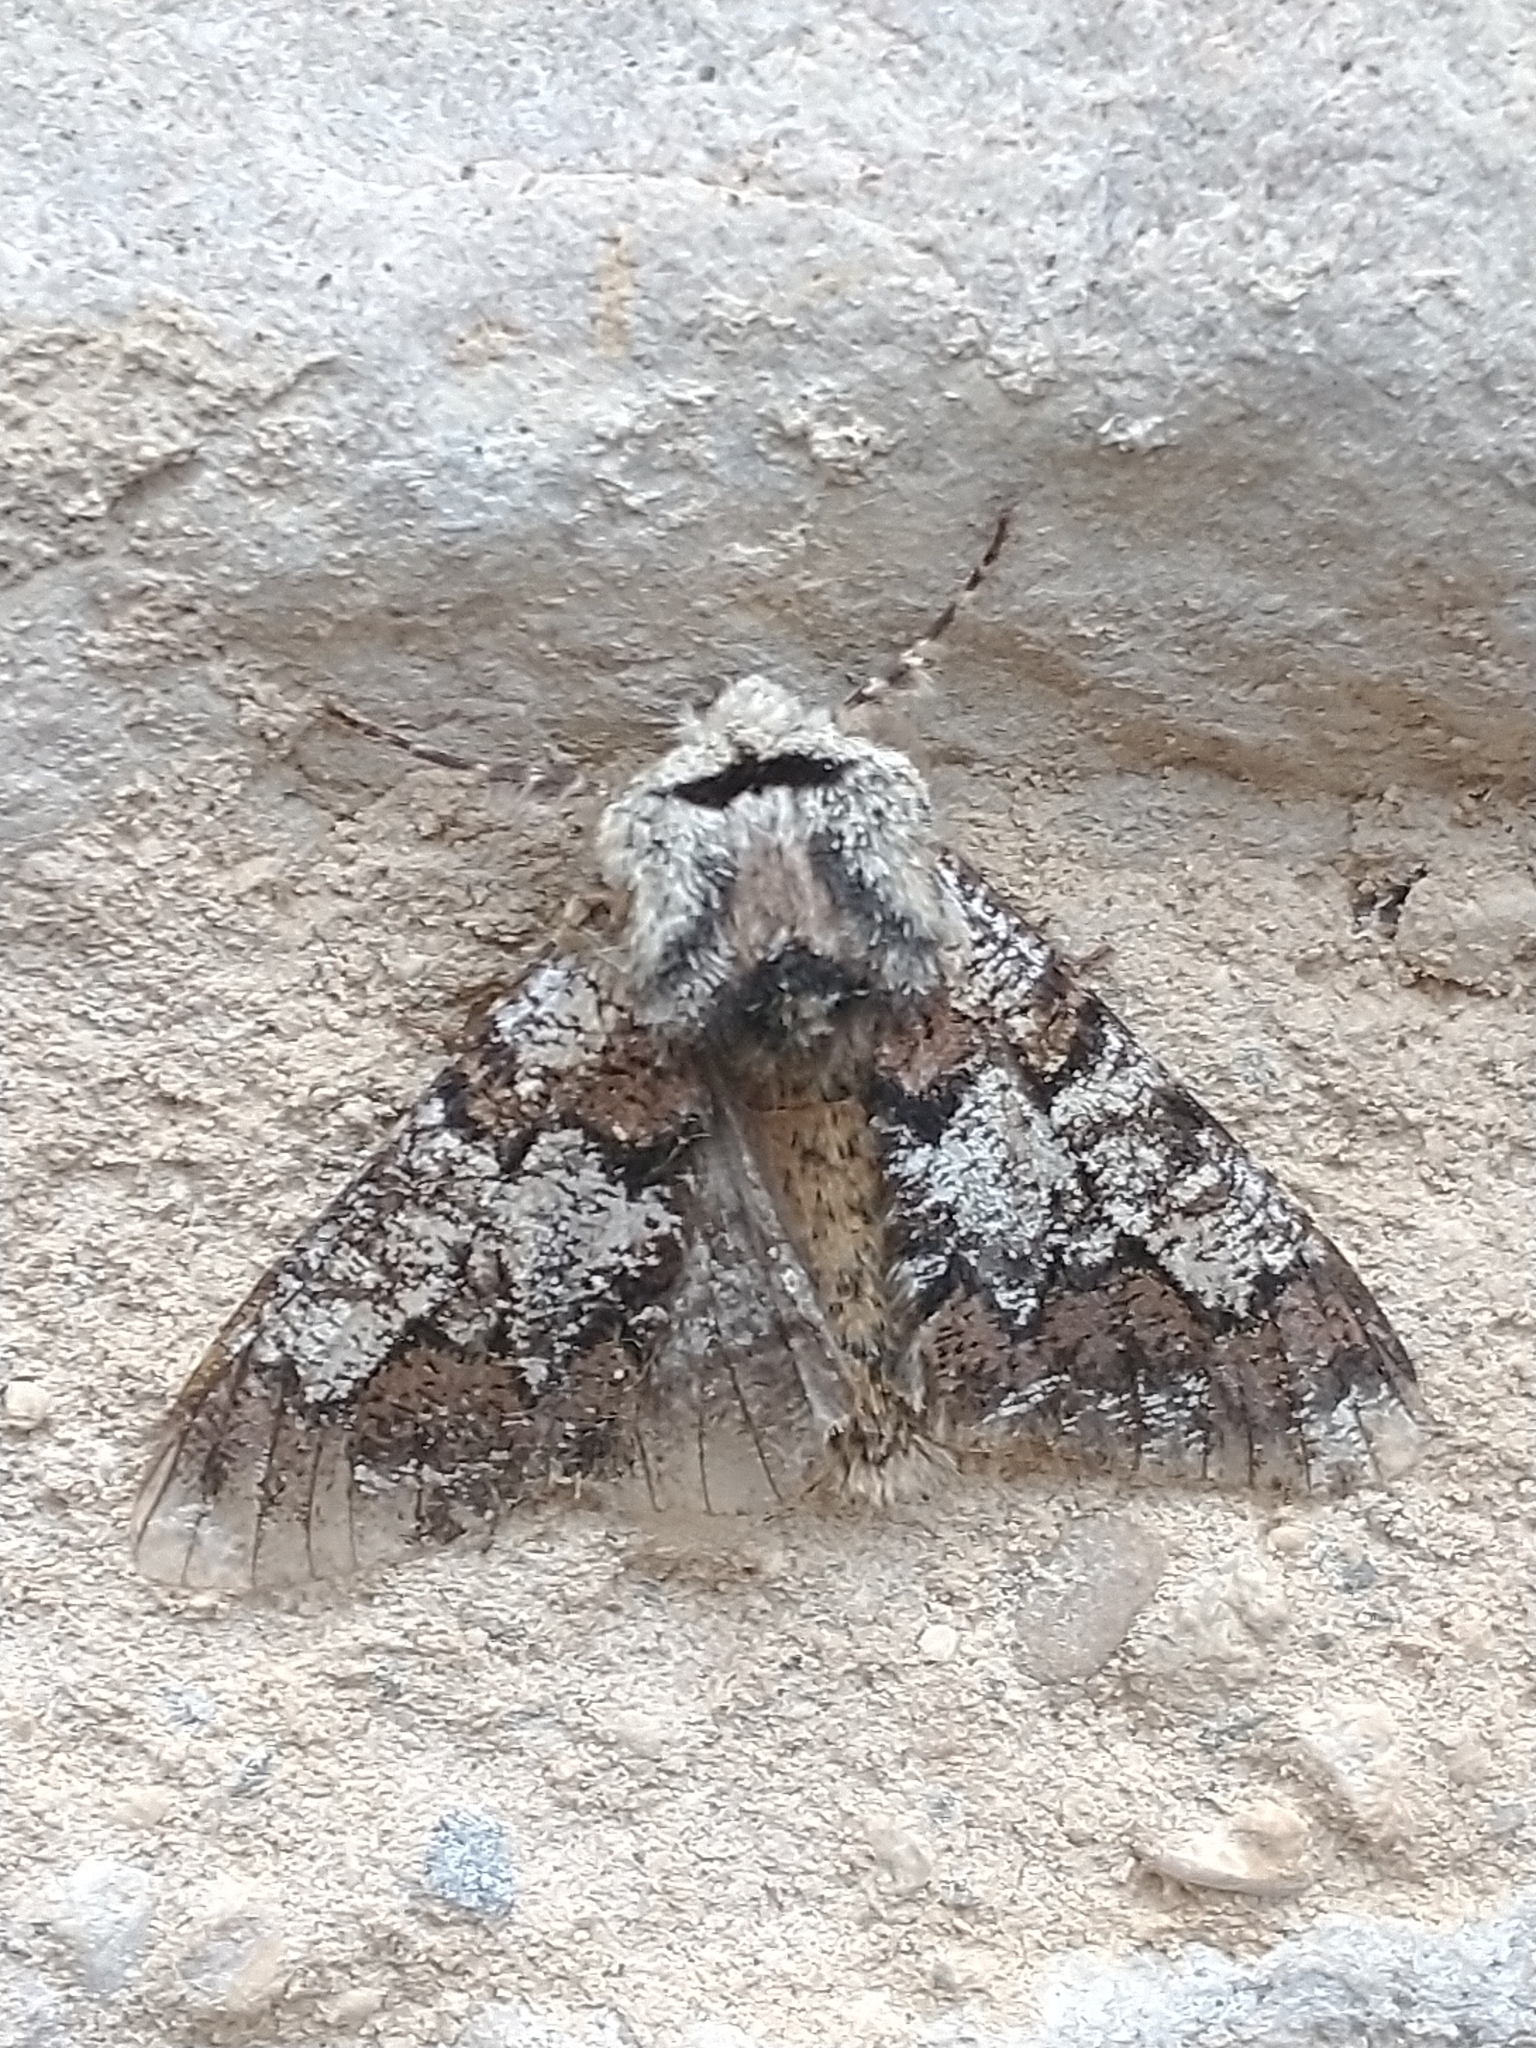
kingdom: Animalia
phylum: Arthropoda
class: Insecta
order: Lepidoptera
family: Geometridae
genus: Biston
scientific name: Biston strataria
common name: Oak beauty
